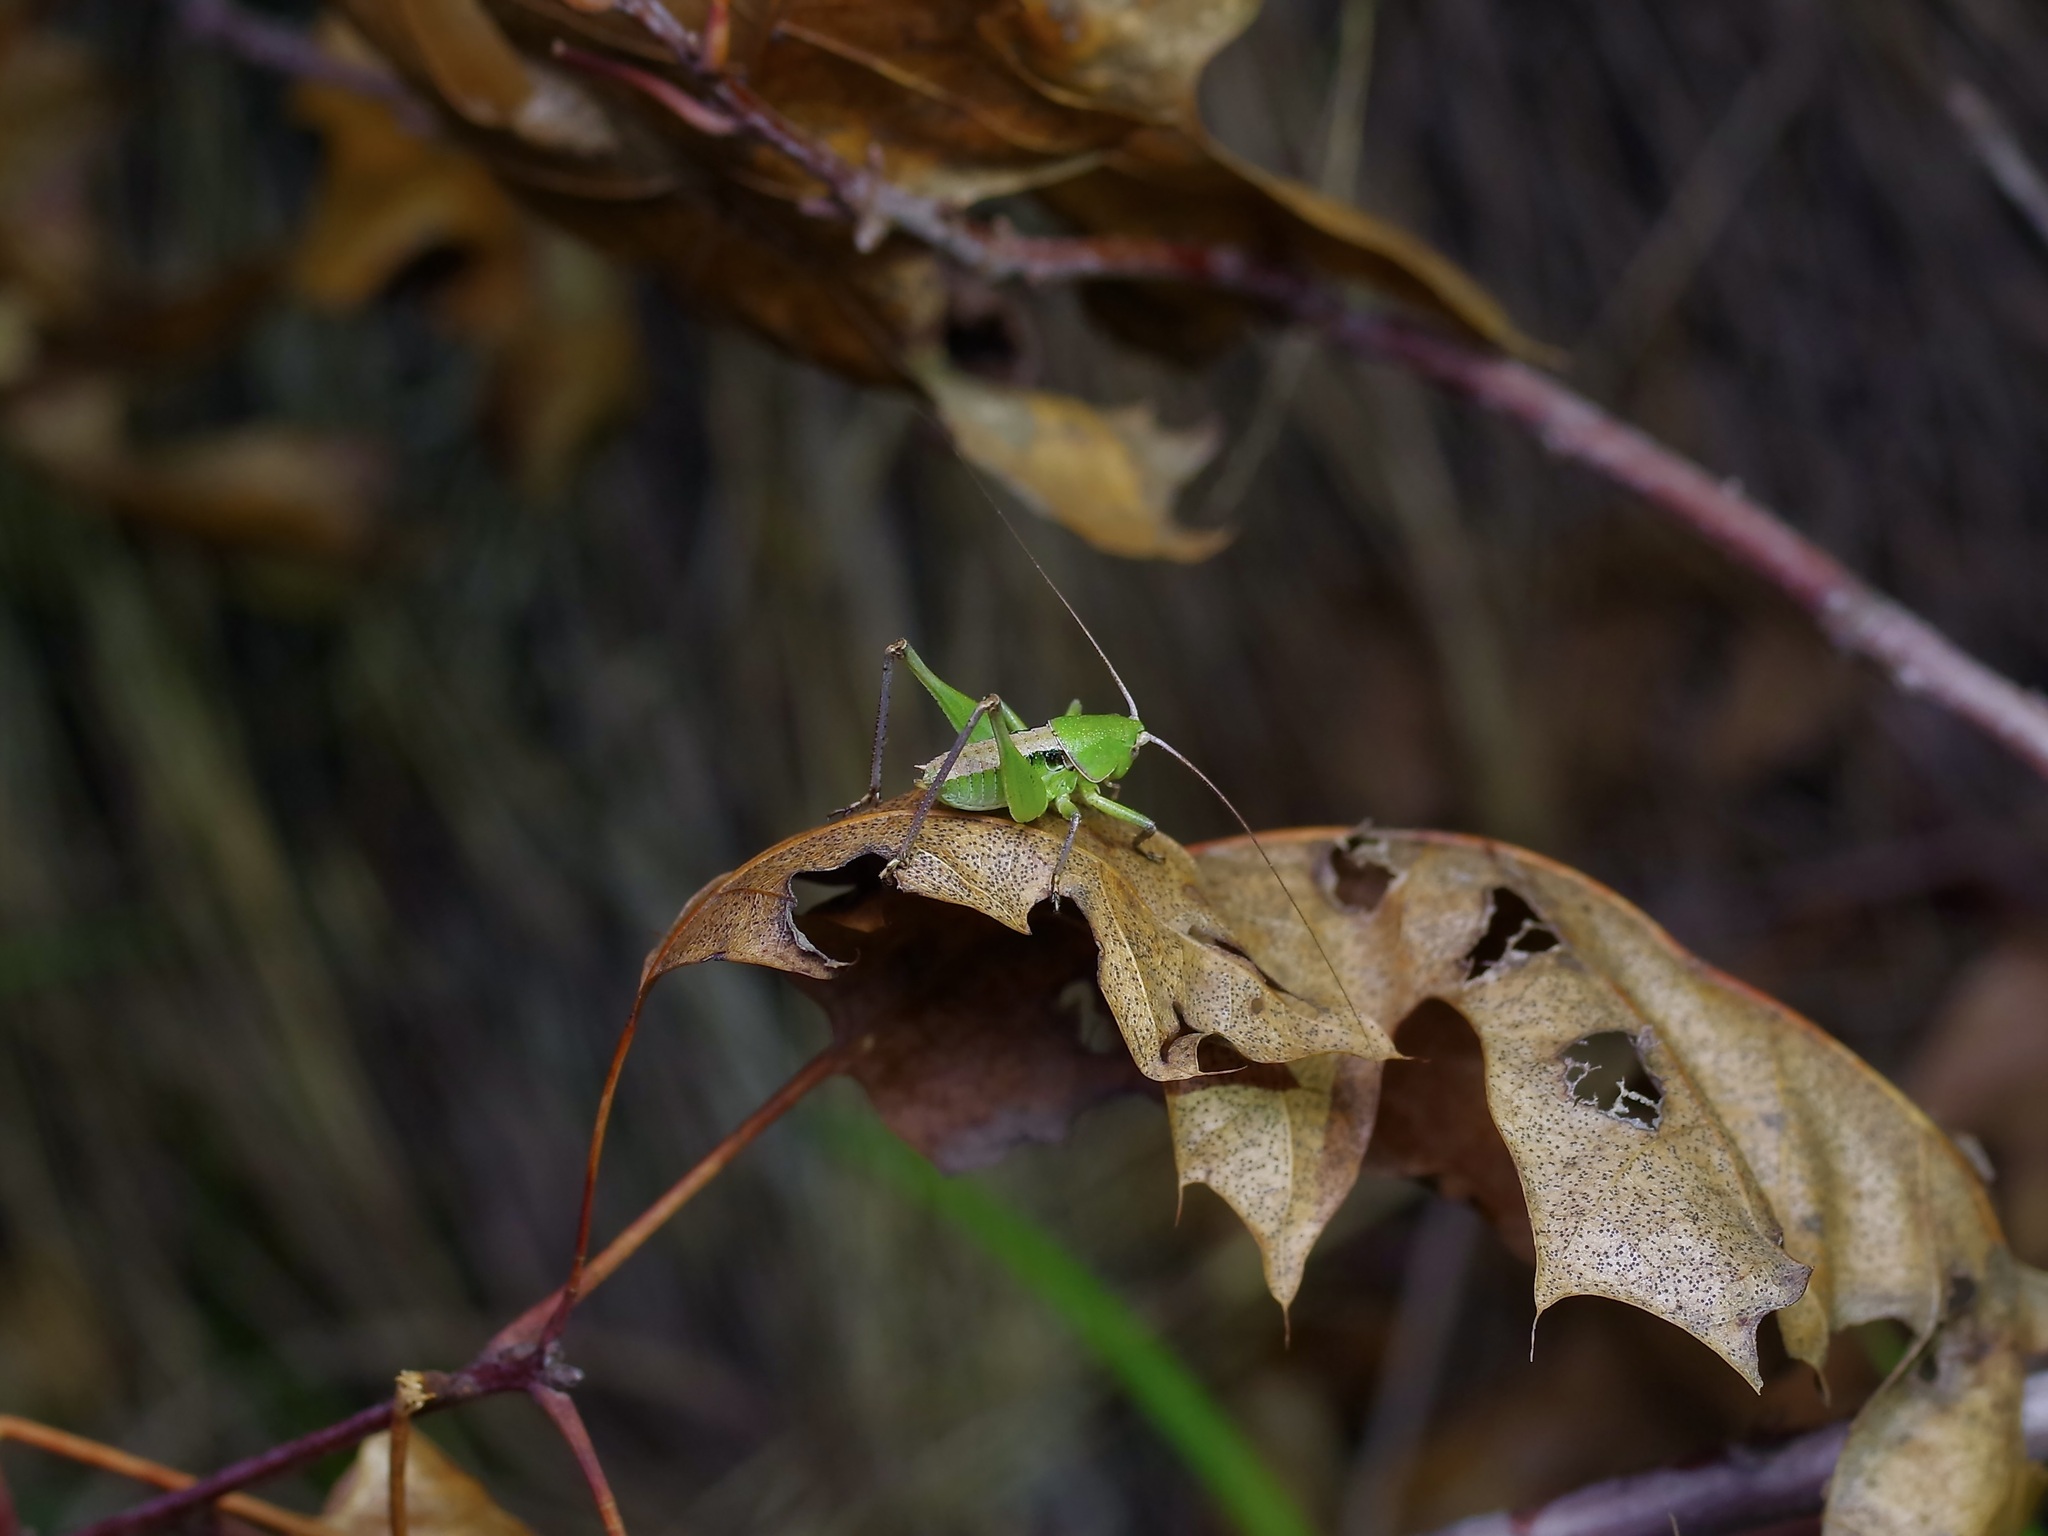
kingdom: Animalia
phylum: Arthropoda
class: Insecta
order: Orthoptera
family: Tettigoniidae
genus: Pediodectes
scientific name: Pediodectes haldemanii
